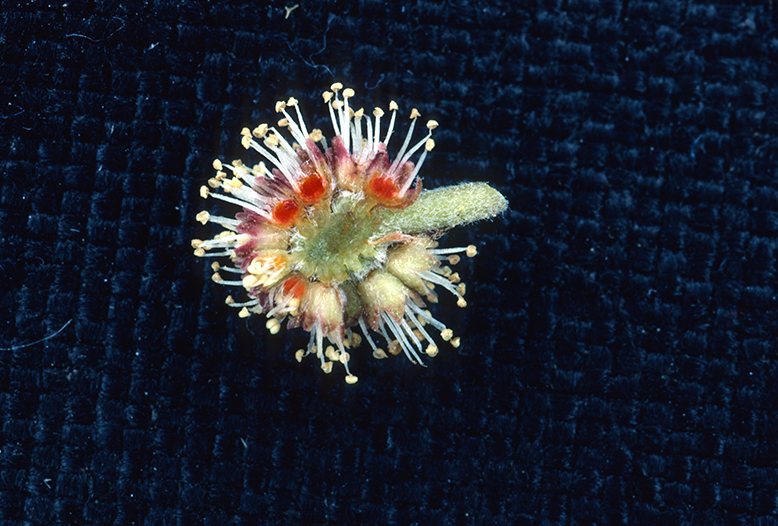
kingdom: Plantae
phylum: Tracheophyta
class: Magnoliopsida
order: Myrtales
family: Combretaceae
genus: Conocarpus
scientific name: Conocarpus erectus
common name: Button mangrove
